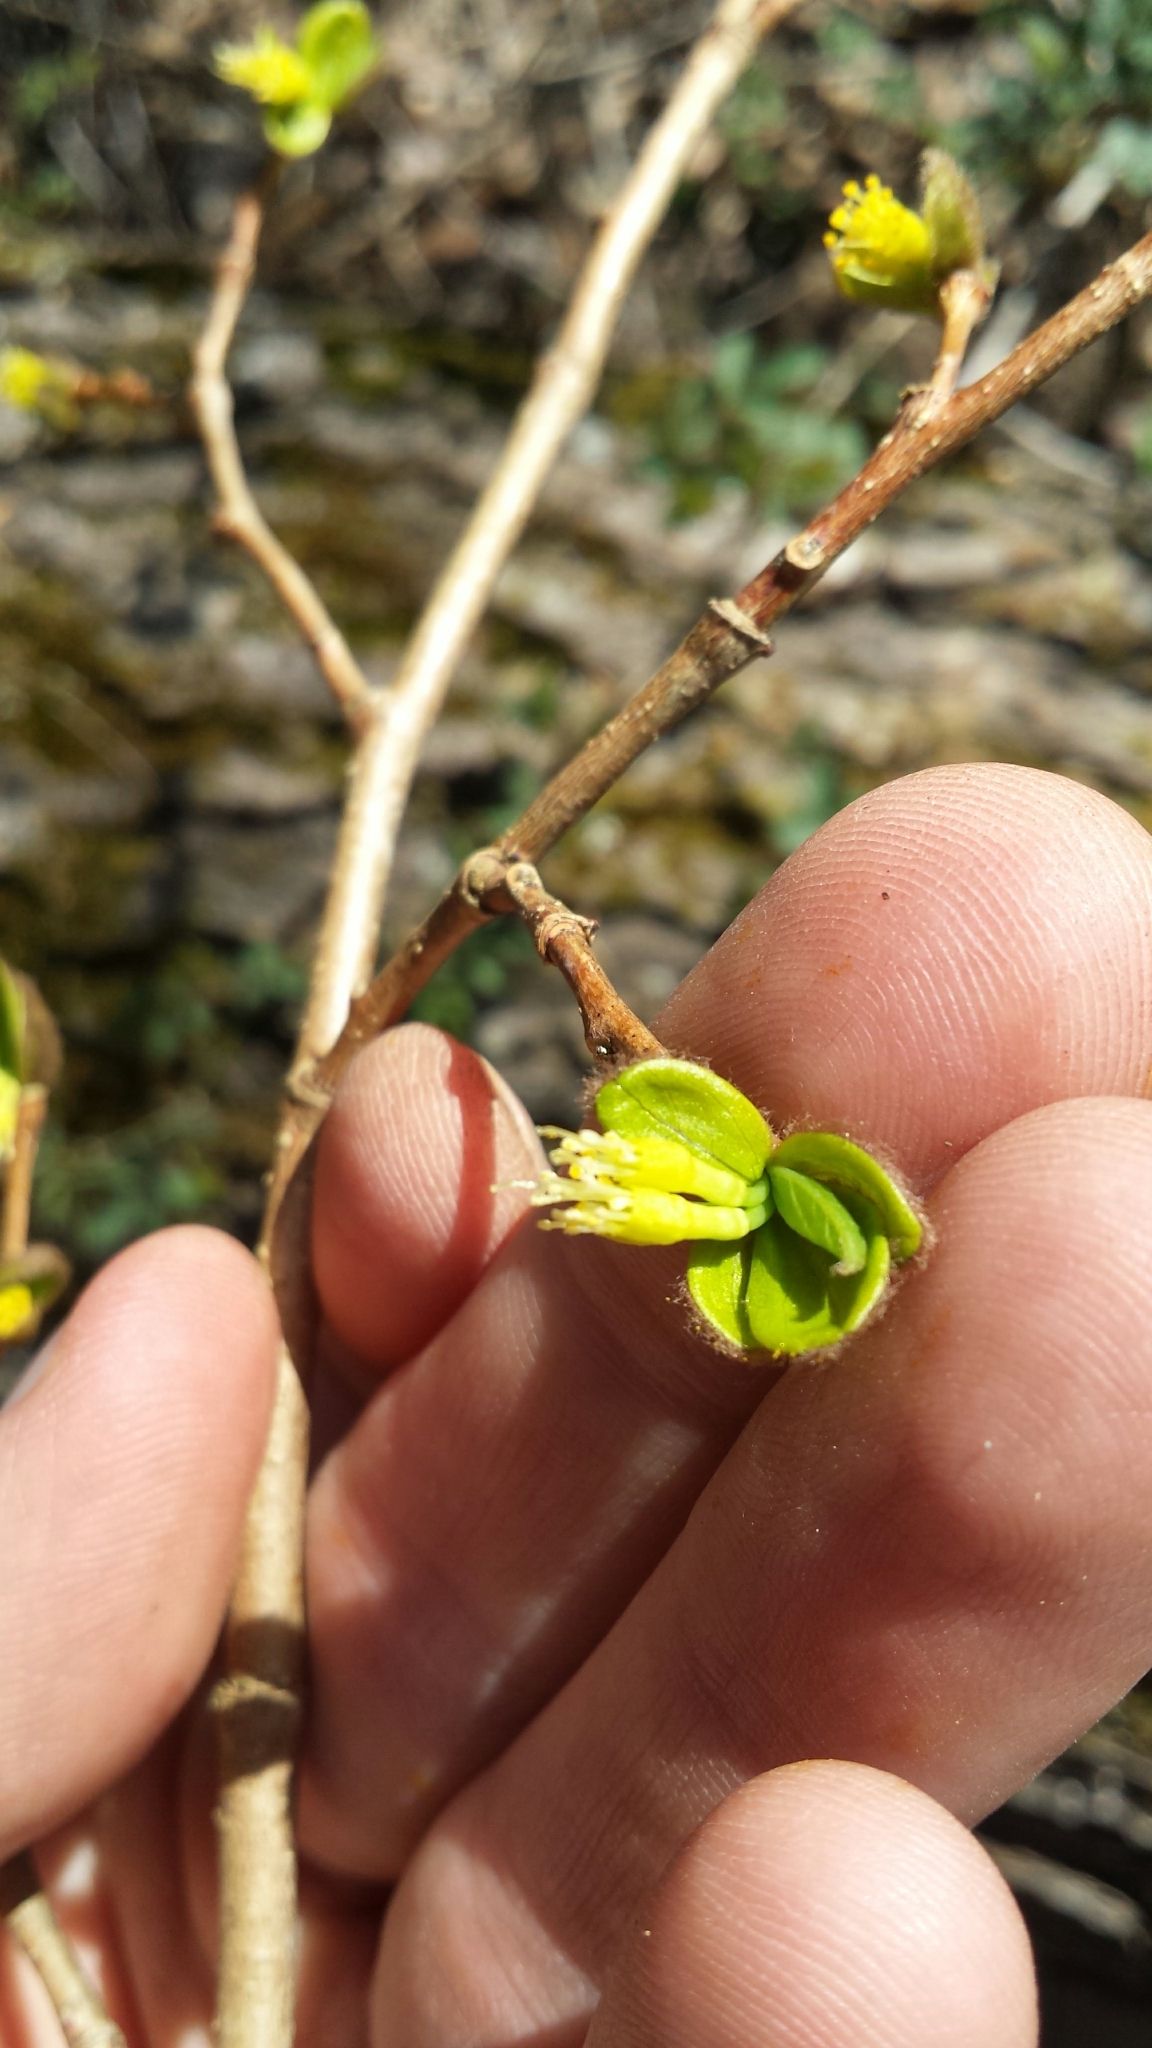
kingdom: Plantae
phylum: Tracheophyta
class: Magnoliopsida
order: Malvales
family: Thymelaeaceae
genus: Dirca
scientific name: Dirca palustris
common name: Leatherwood
